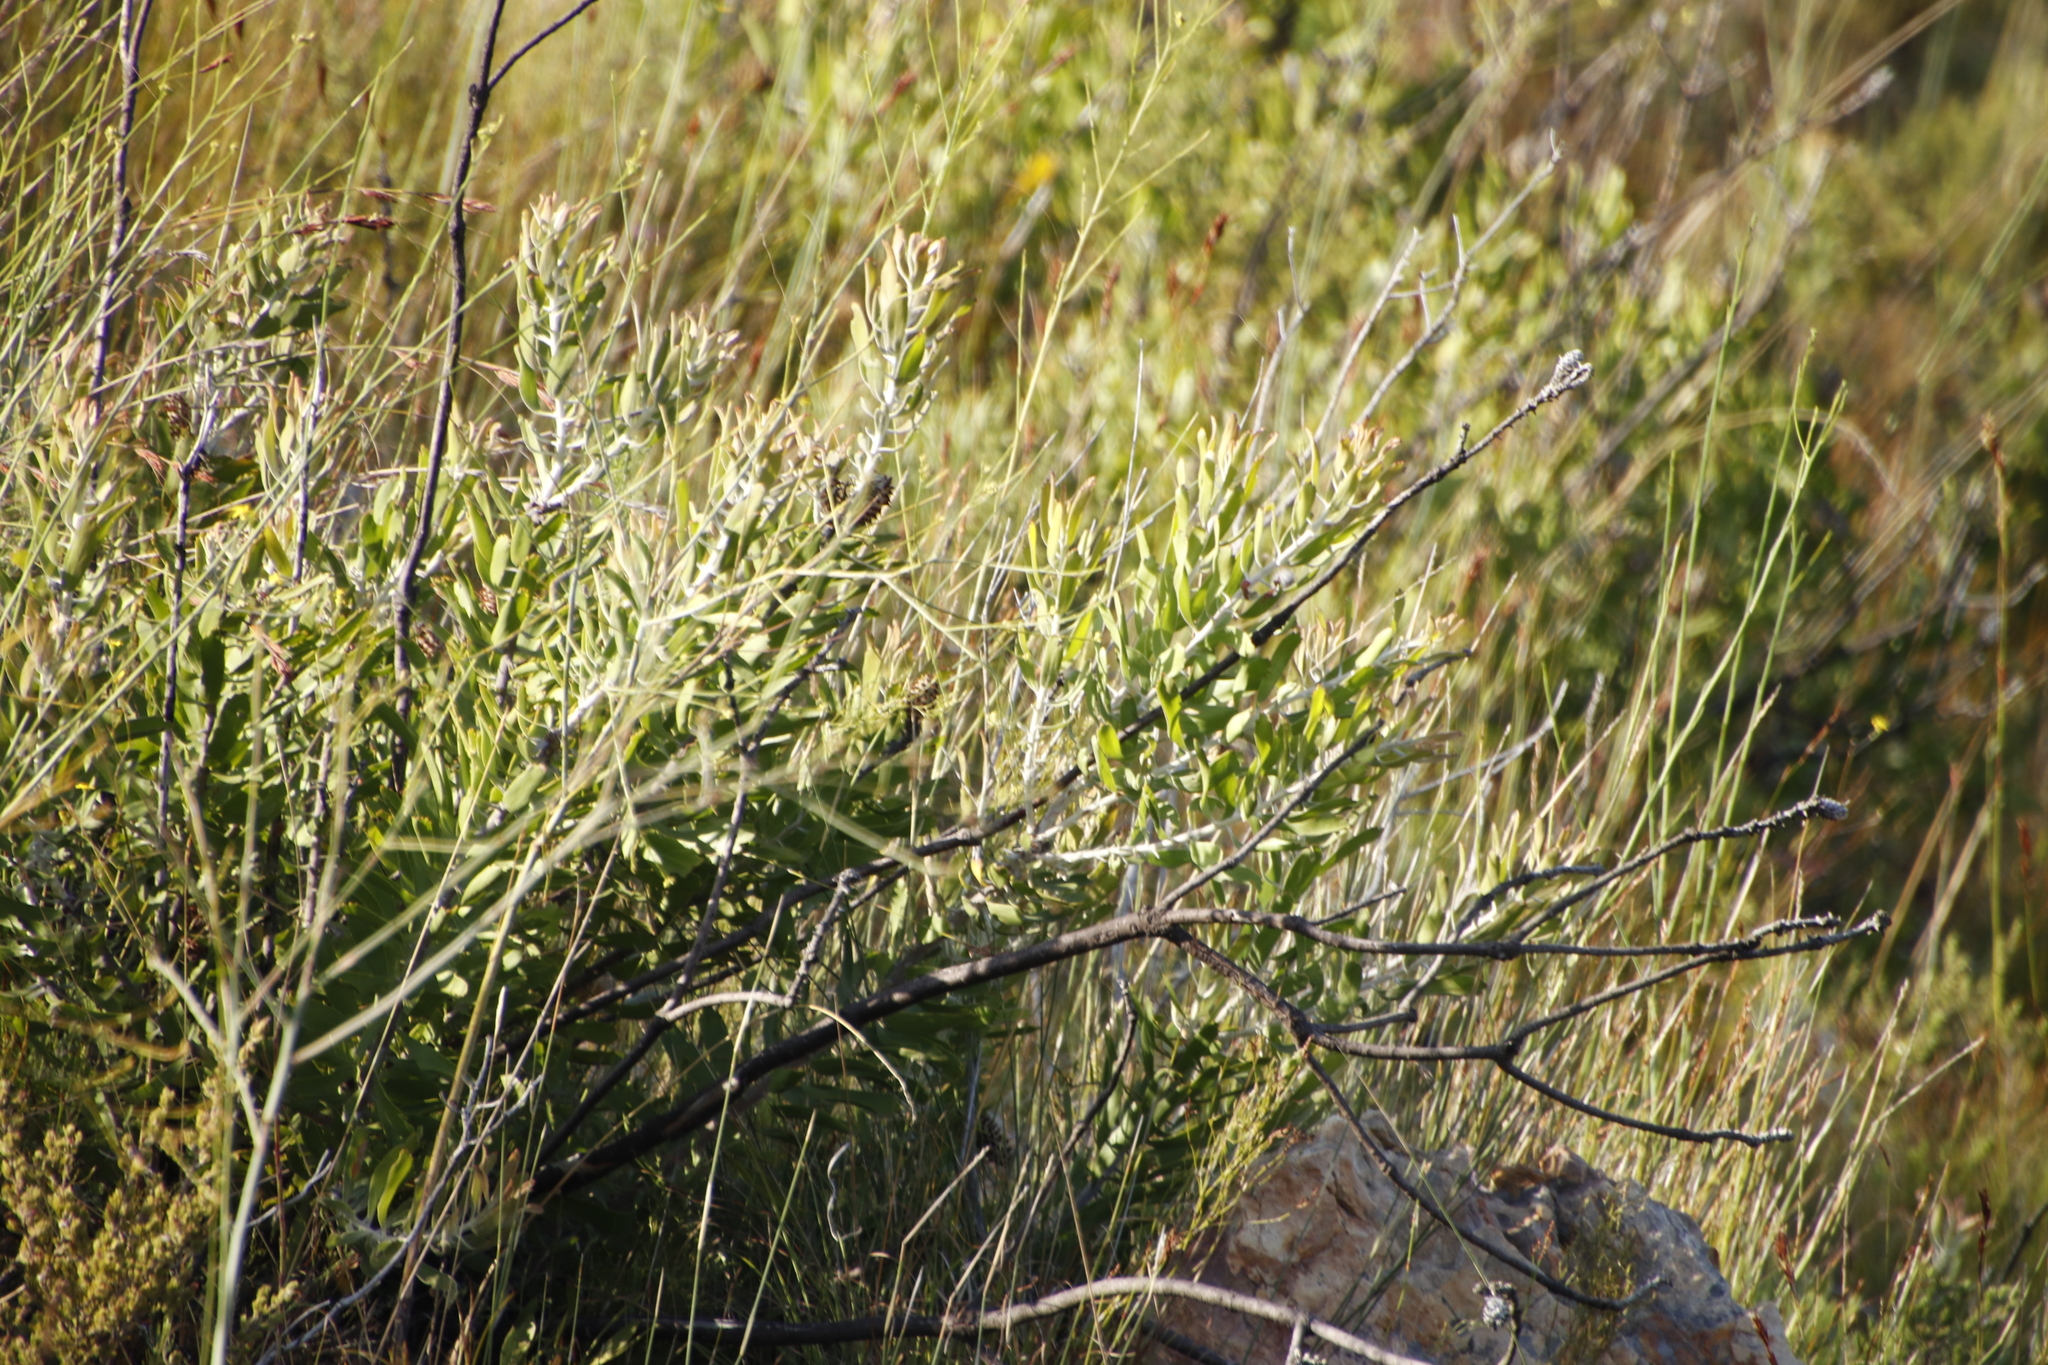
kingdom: Plantae
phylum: Tracheophyta
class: Magnoliopsida
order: Proteales
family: Proteaceae
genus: Leucospermum
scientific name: Leucospermum cuneiforme
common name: Common pincushion
